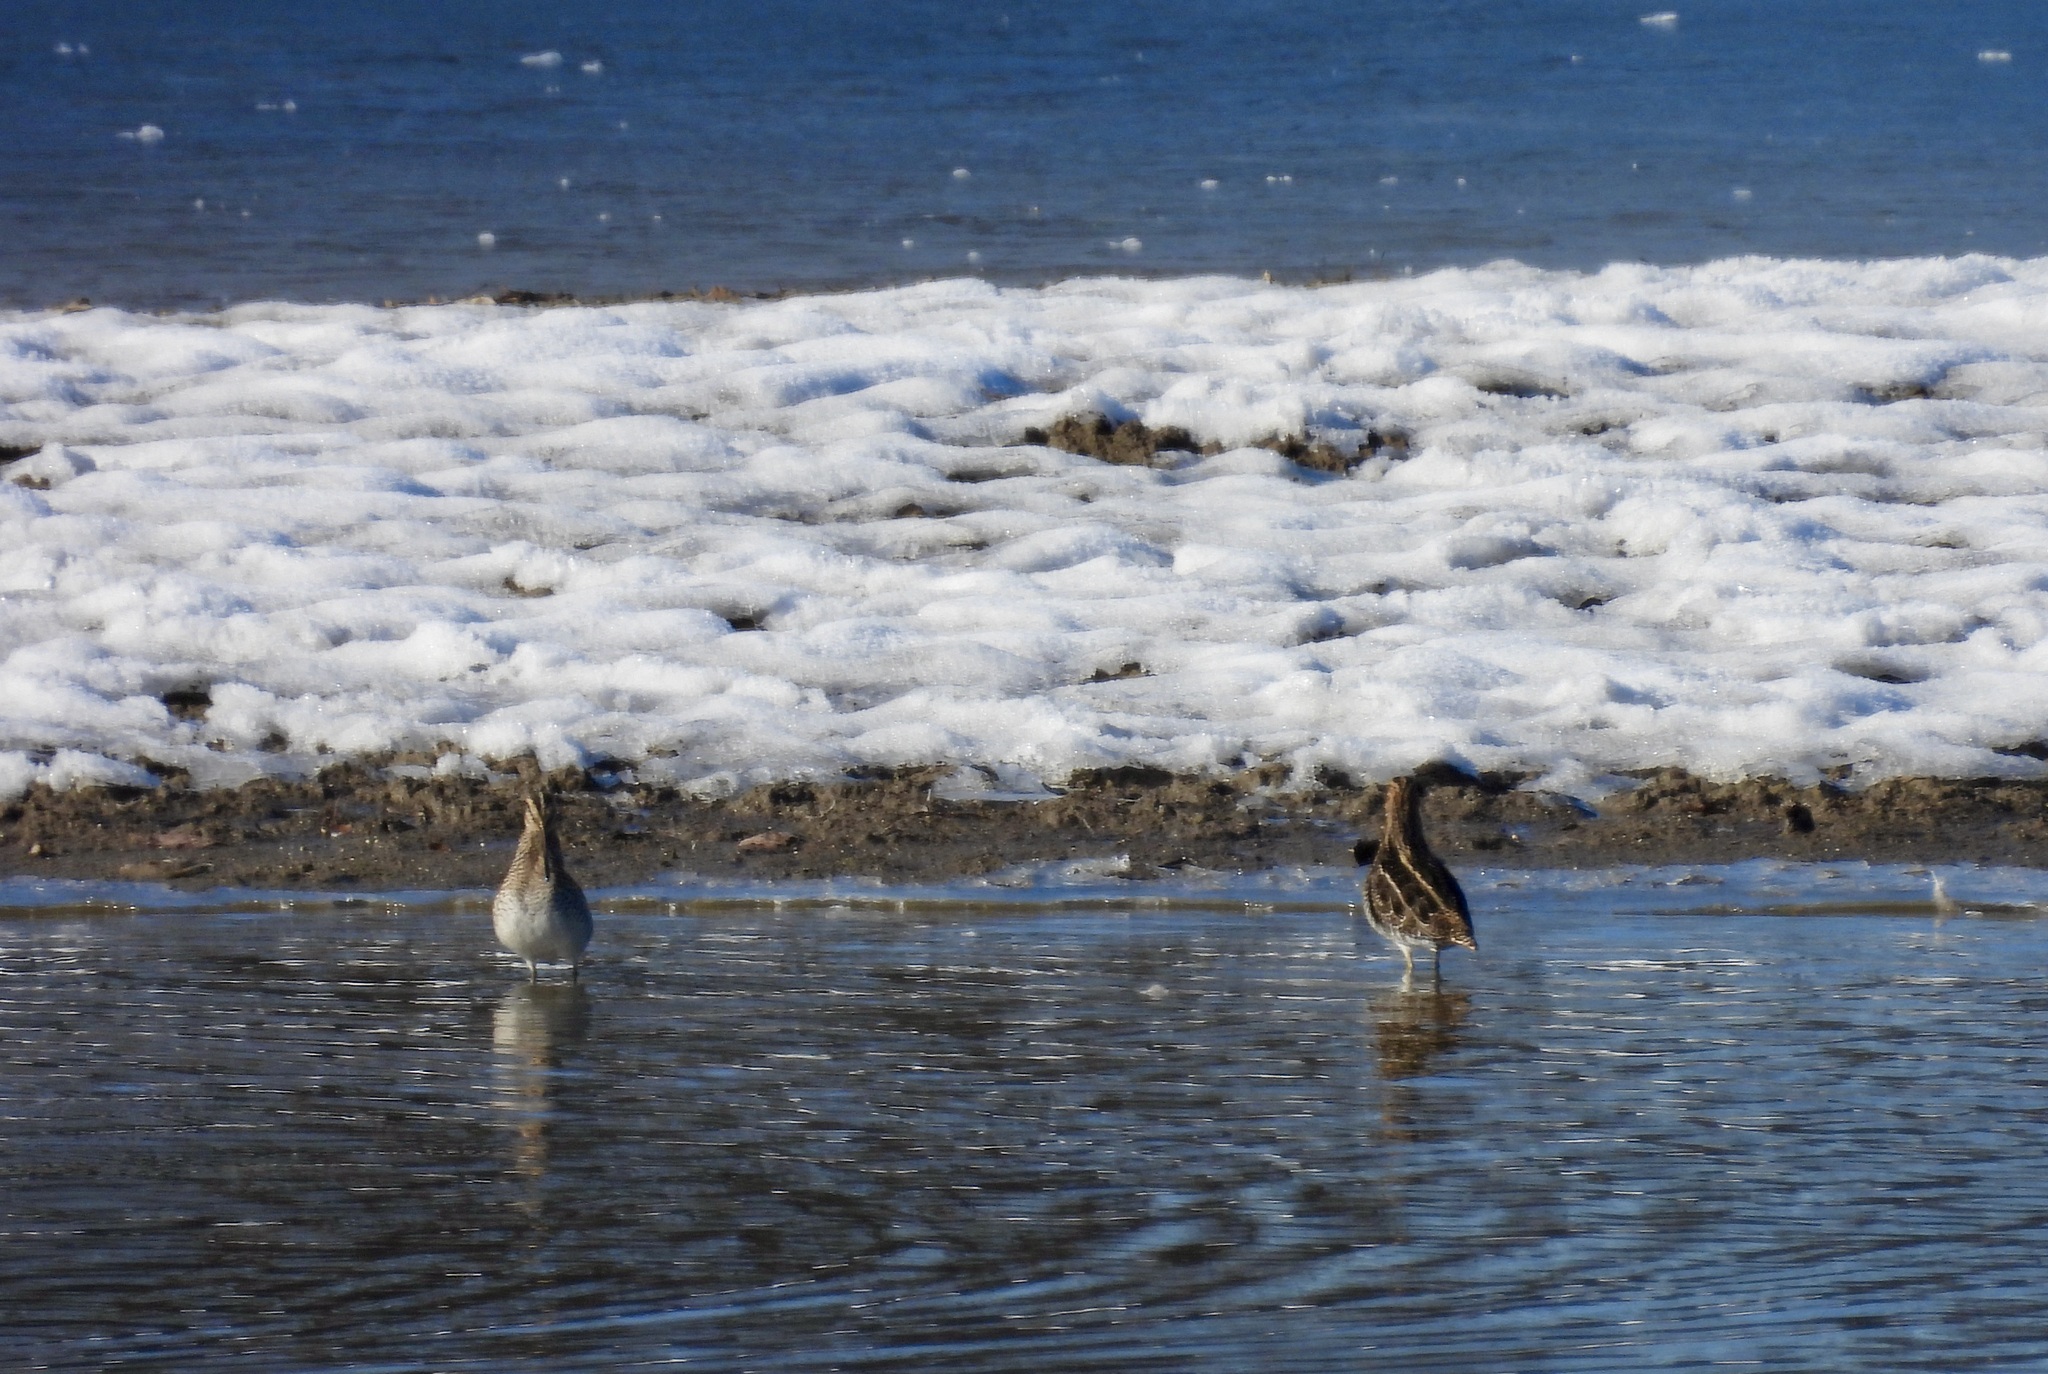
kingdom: Animalia
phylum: Chordata
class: Aves
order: Charadriiformes
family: Scolopacidae
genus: Gallinago
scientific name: Gallinago delicata
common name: Wilson's snipe
